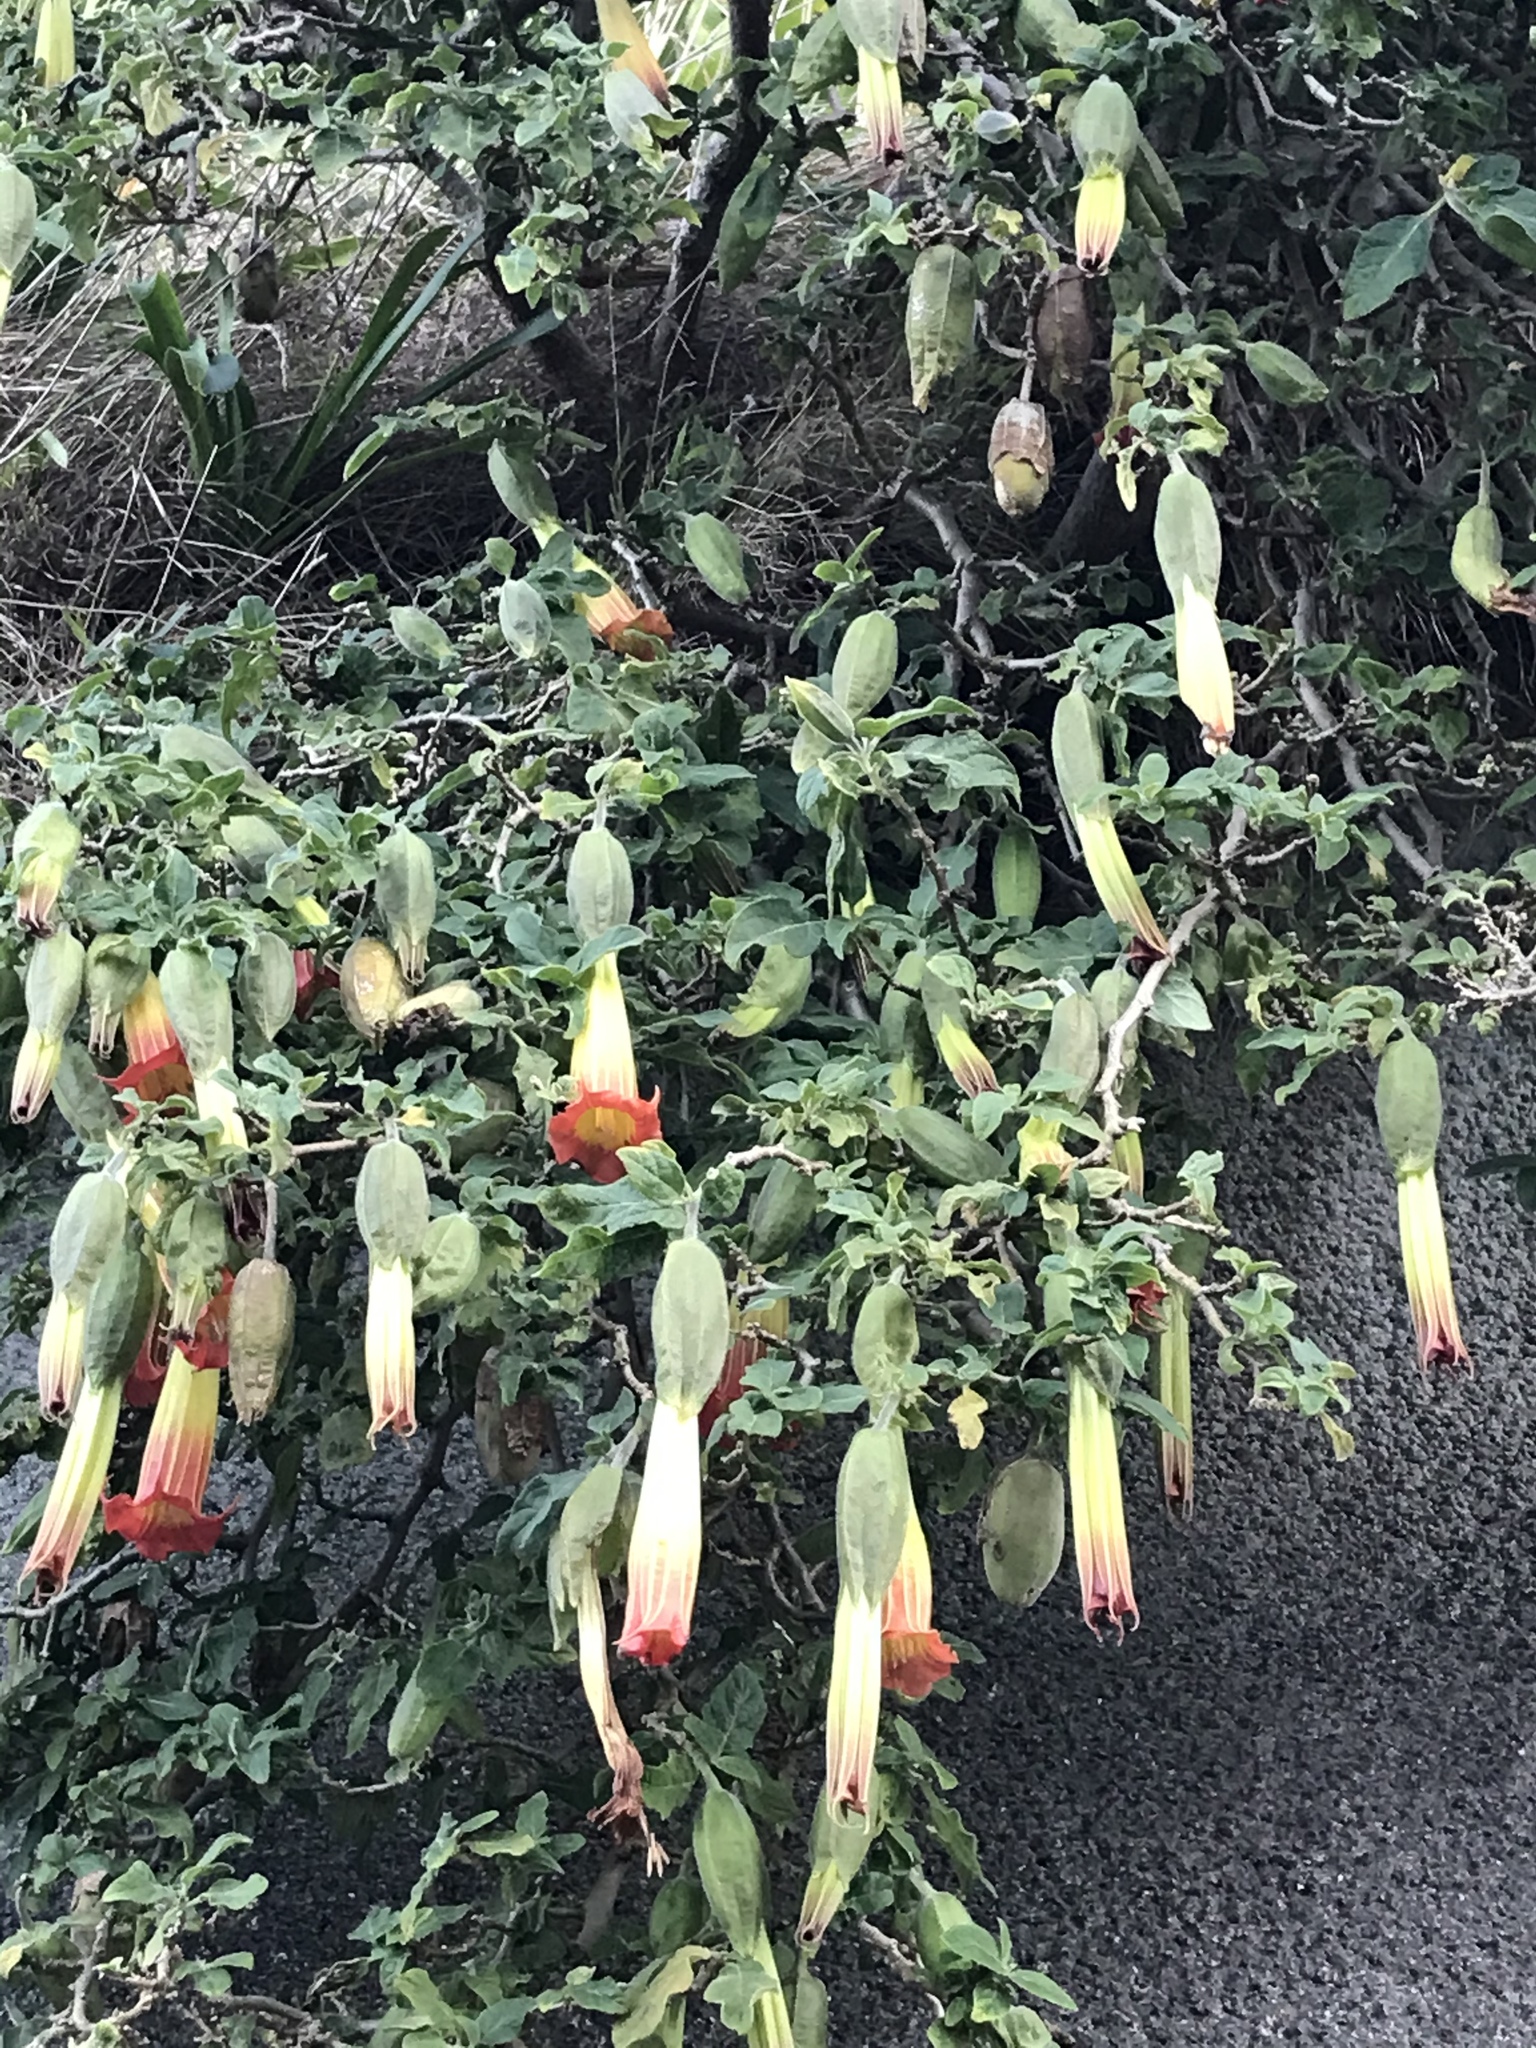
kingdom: Plantae
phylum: Tracheophyta
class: Magnoliopsida
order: Solanales
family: Solanaceae
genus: Brugmansia
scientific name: Brugmansia sanguinea
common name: Red floripontio
